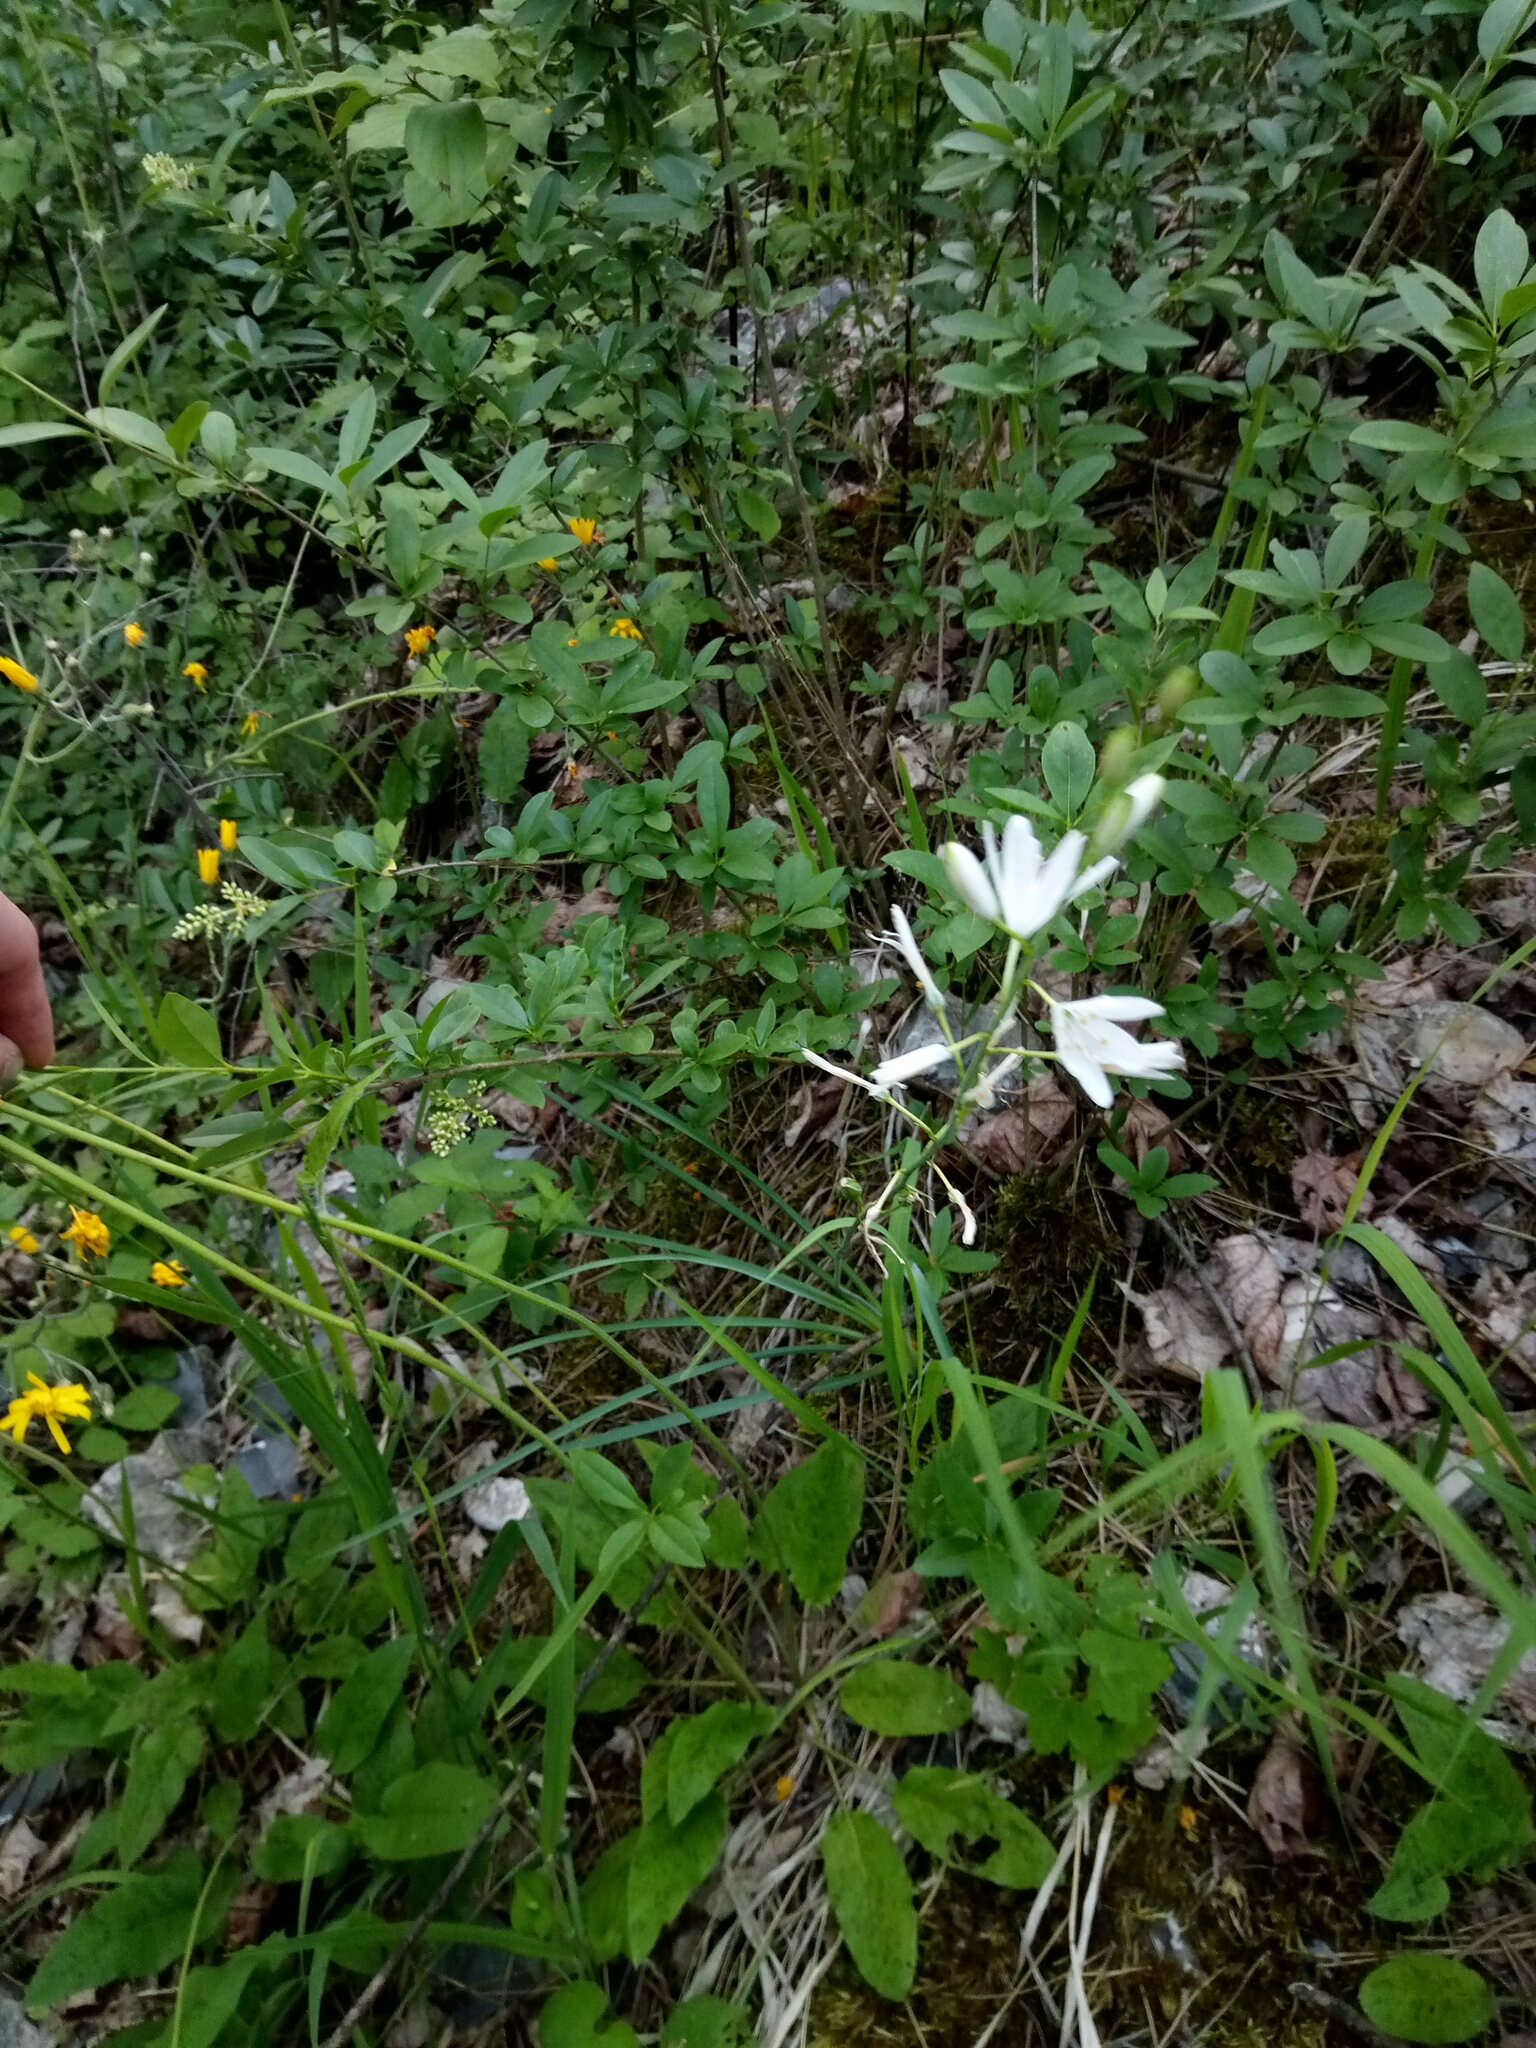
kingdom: Plantae
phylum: Tracheophyta
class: Liliopsida
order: Asparagales
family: Asparagaceae
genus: Anthericum
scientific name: Anthericum liliago
